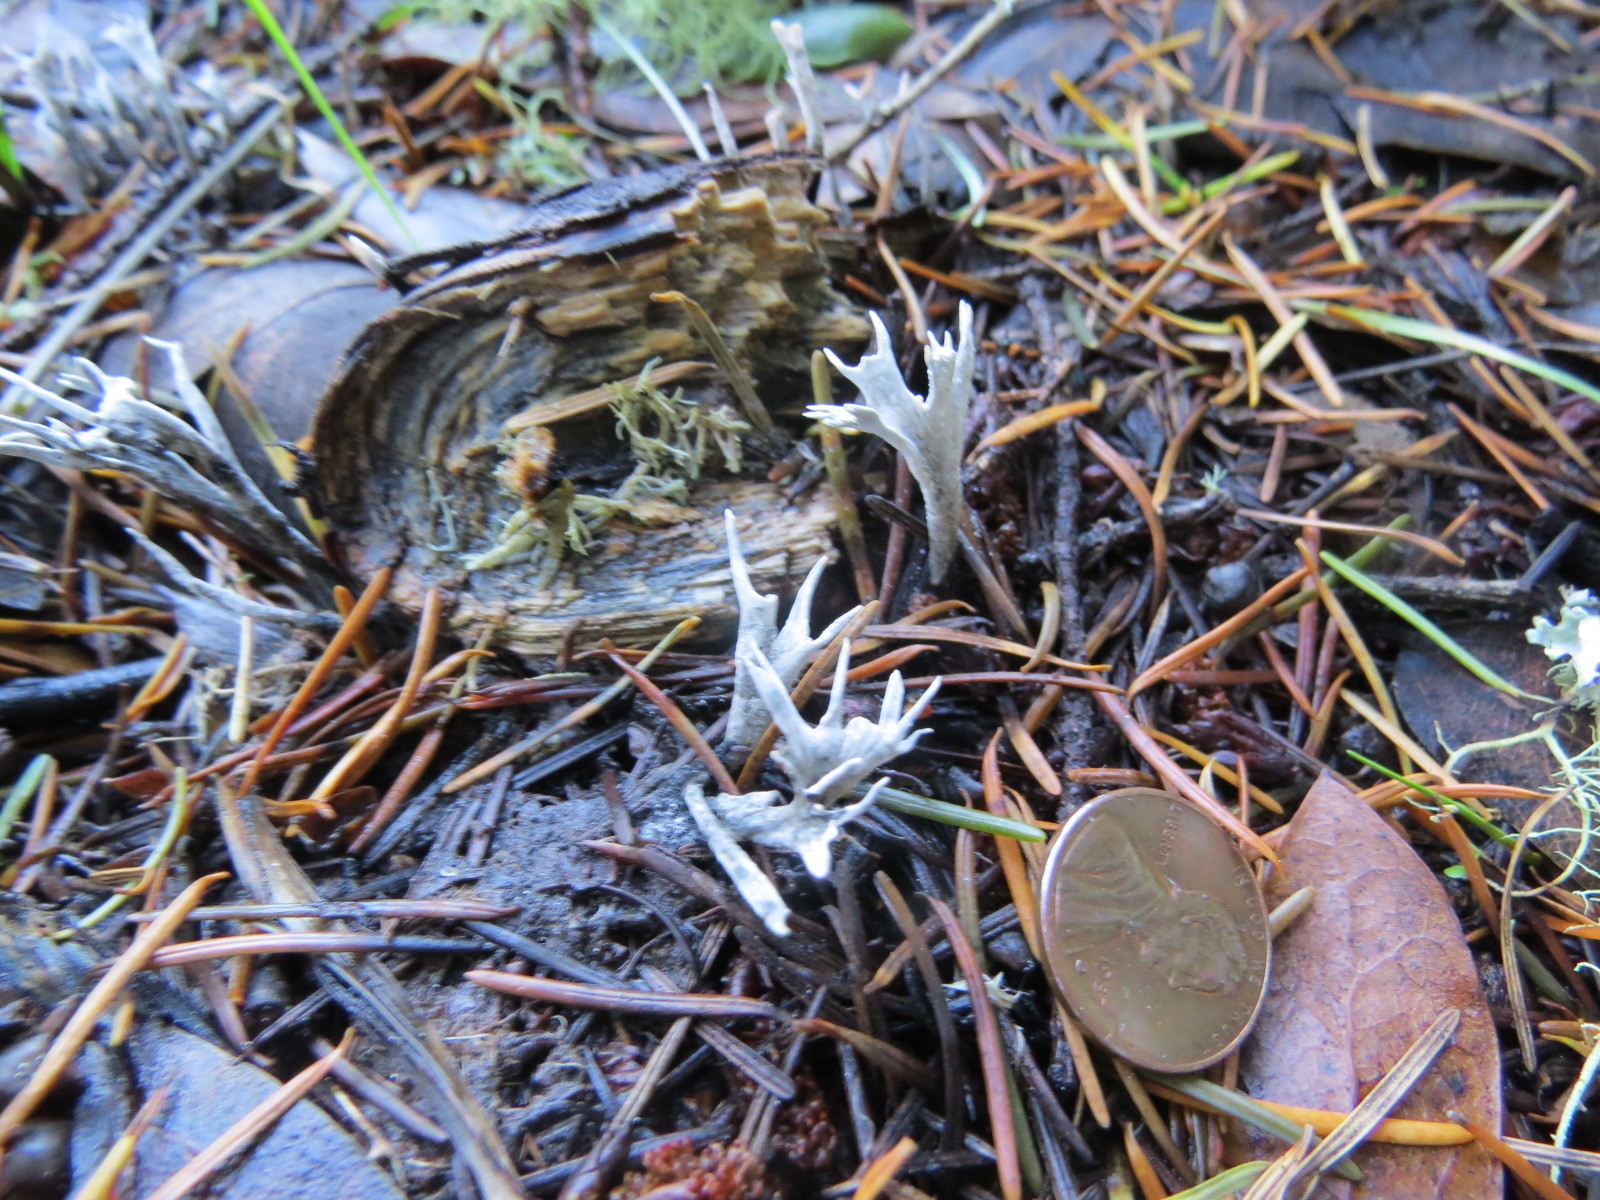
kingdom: Fungi
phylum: Ascomycota
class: Sordariomycetes
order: Xylariales
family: Xylariaceae
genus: Xylaria
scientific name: Xylaria hypoxylon
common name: Candle-snuff fungus
